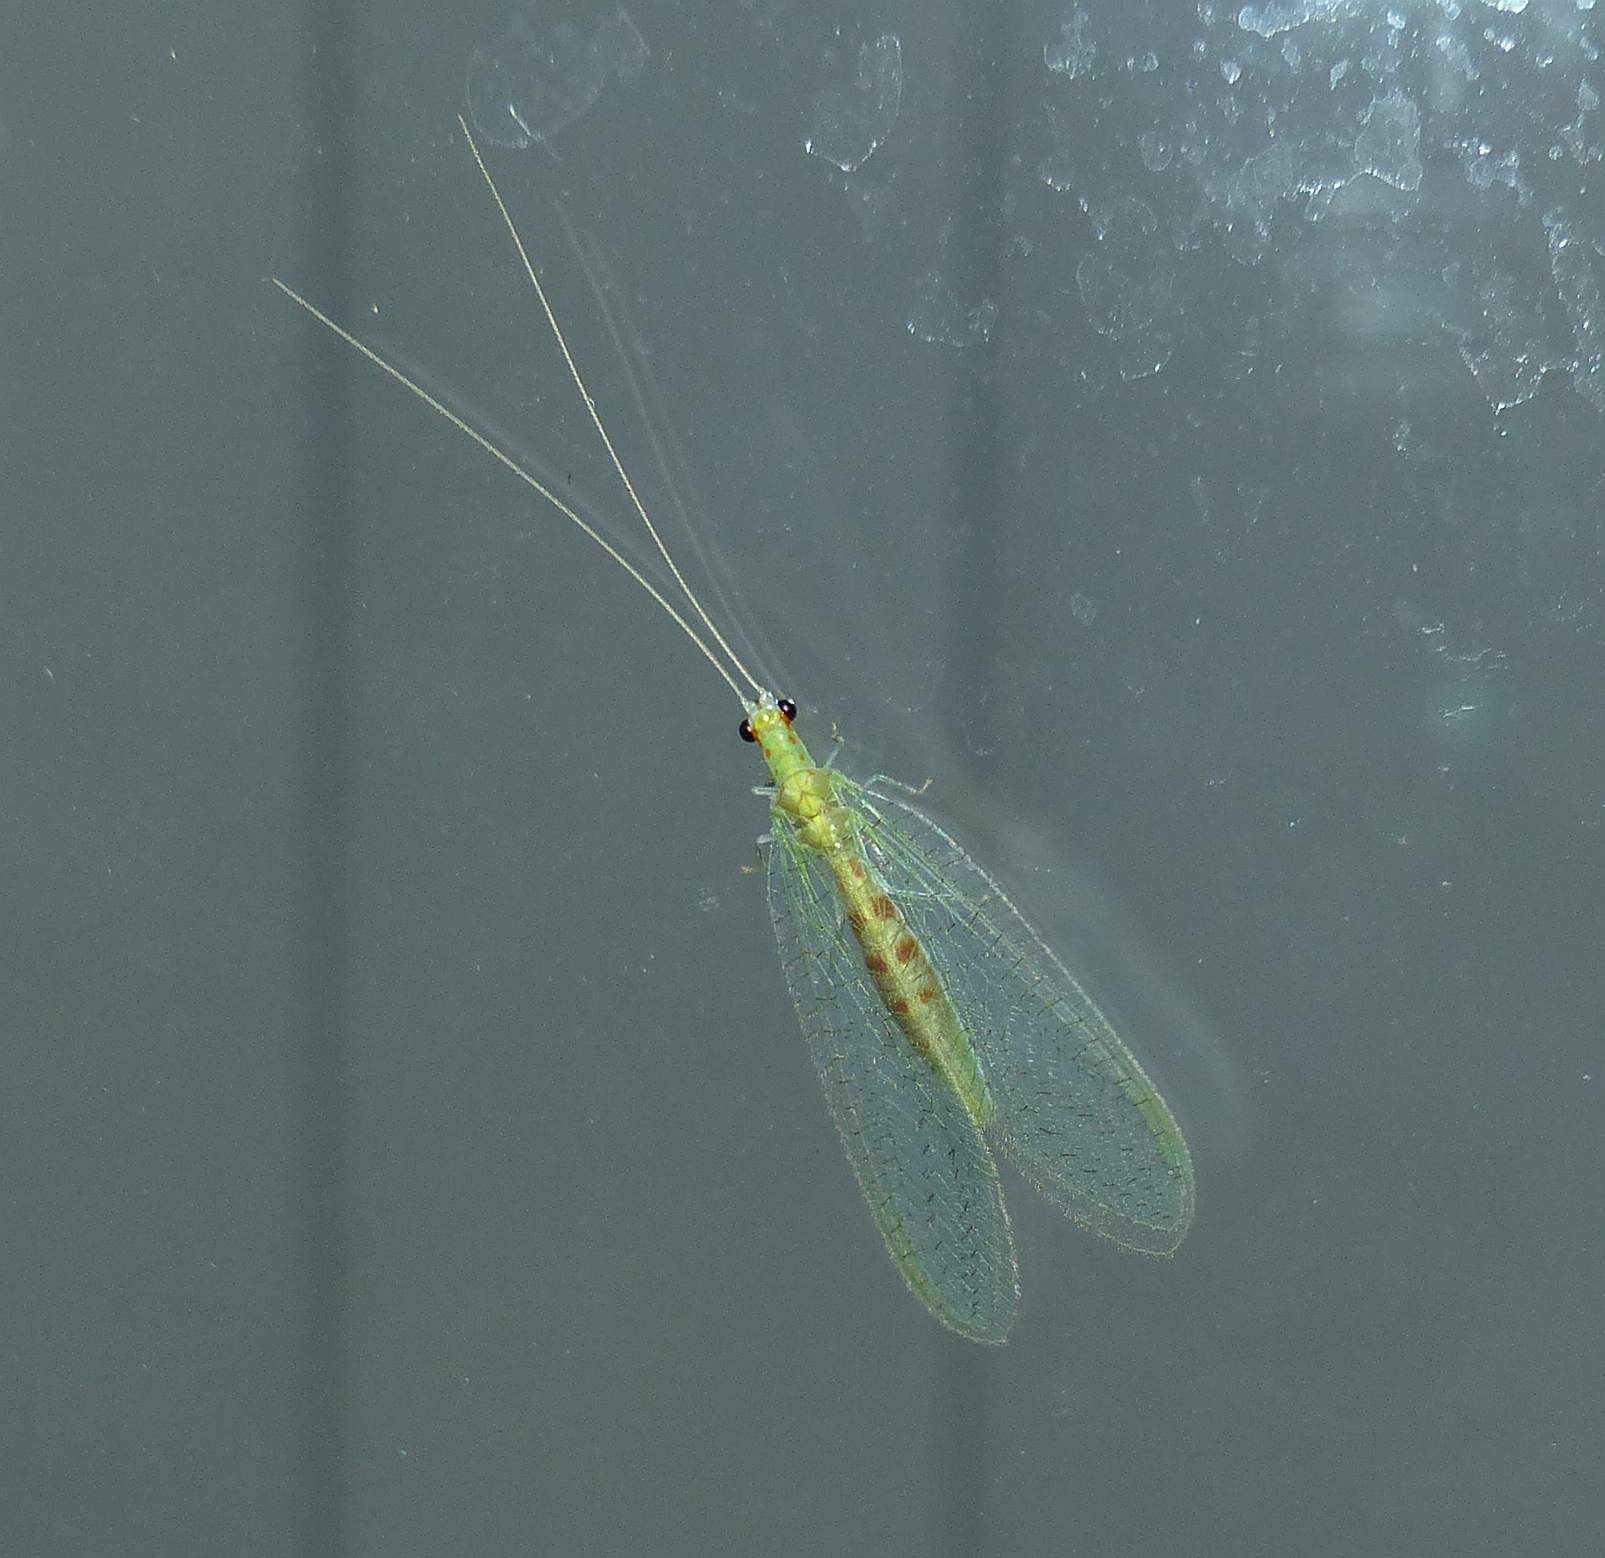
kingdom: Animalia
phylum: Arthropoda
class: Insecta
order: Neuroptera
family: Chrysopidae
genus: Chrysopa
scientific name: Chrysopa quadripunctata
